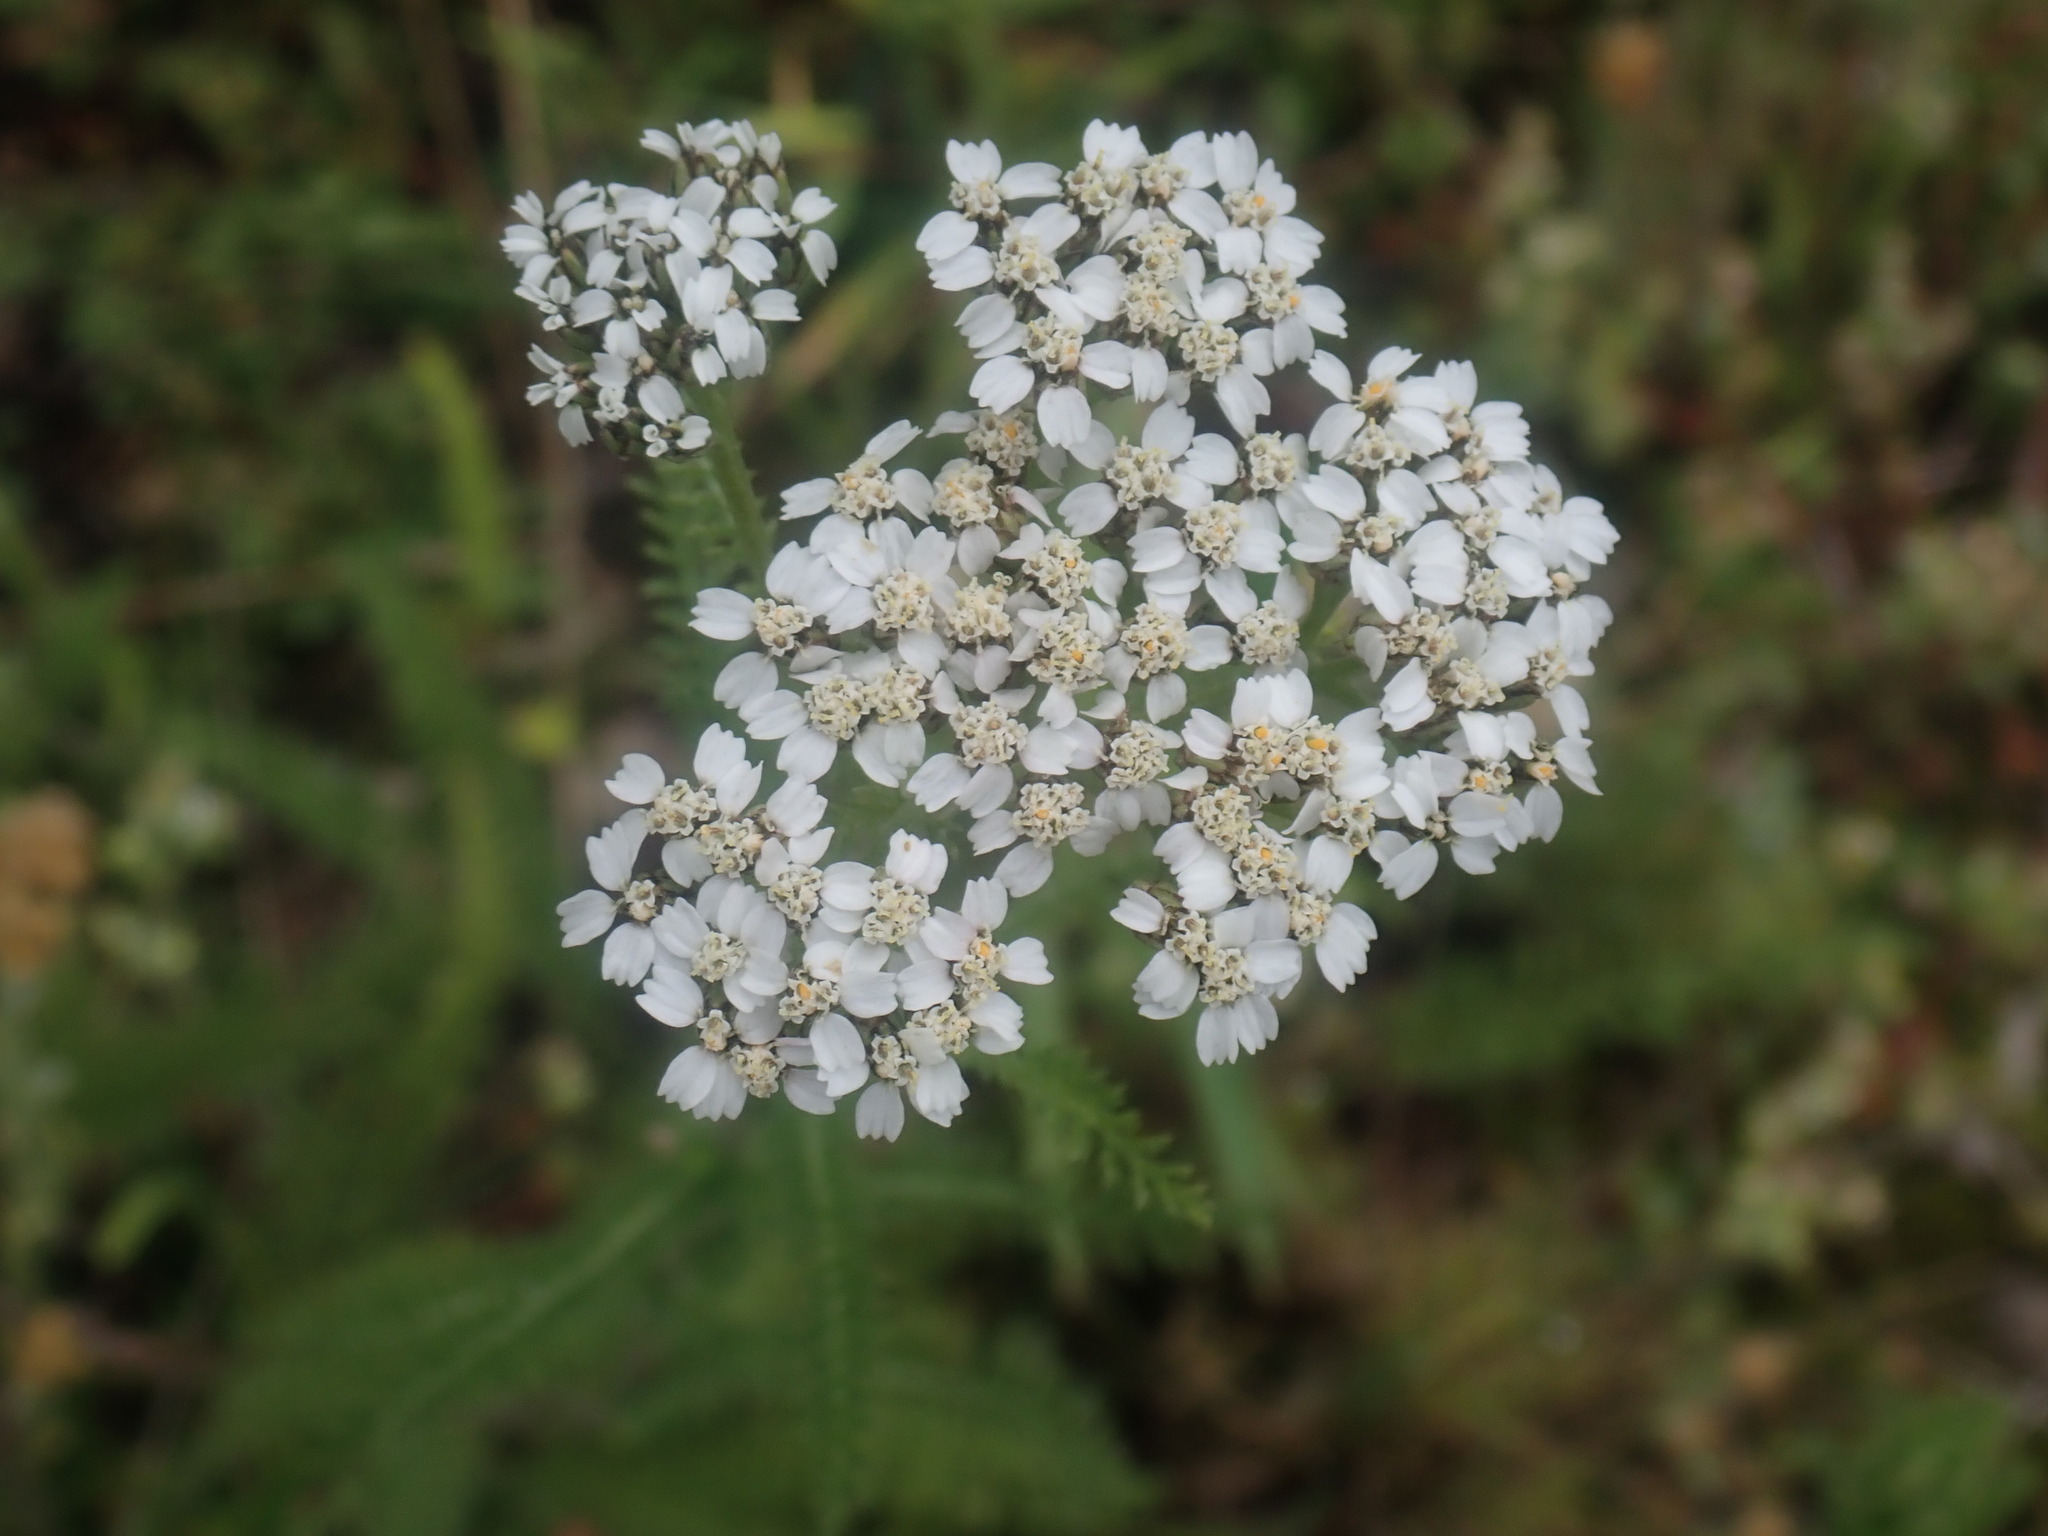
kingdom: Plantae
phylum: Tracheophyta
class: Magnoliopsida
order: Asterales
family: Asteraceae
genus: Achillea
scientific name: Achillea millefolium
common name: Yarrow
